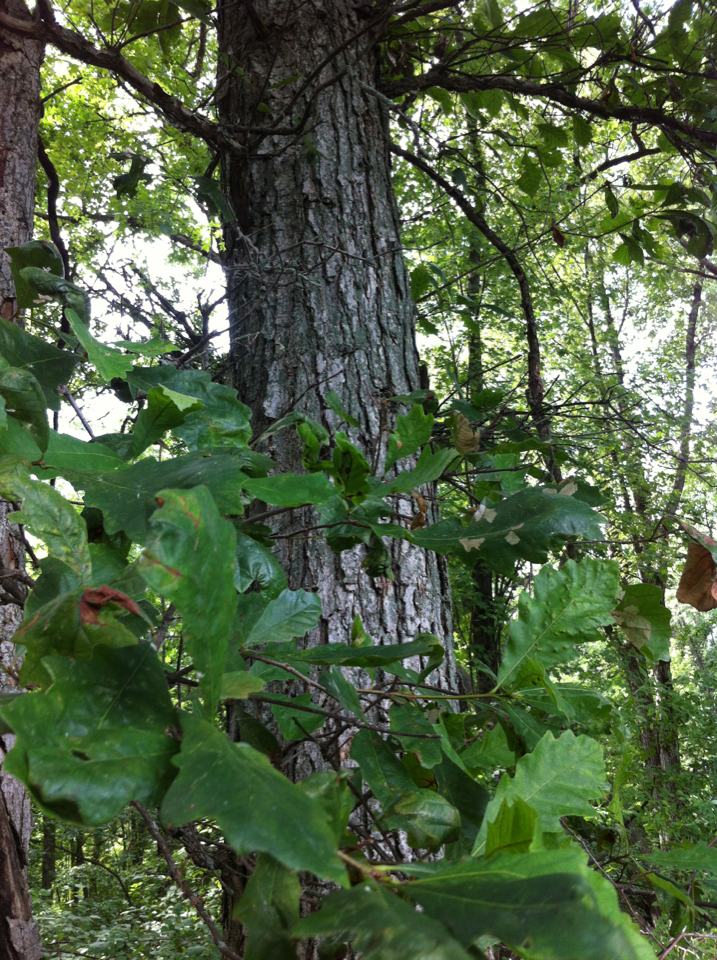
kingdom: Plantae
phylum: Tracheophyta
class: Magnoliopsida
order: Fagales
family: Fagaceae
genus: Quercus
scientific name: Quercus bicolor
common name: Swamp white oak
